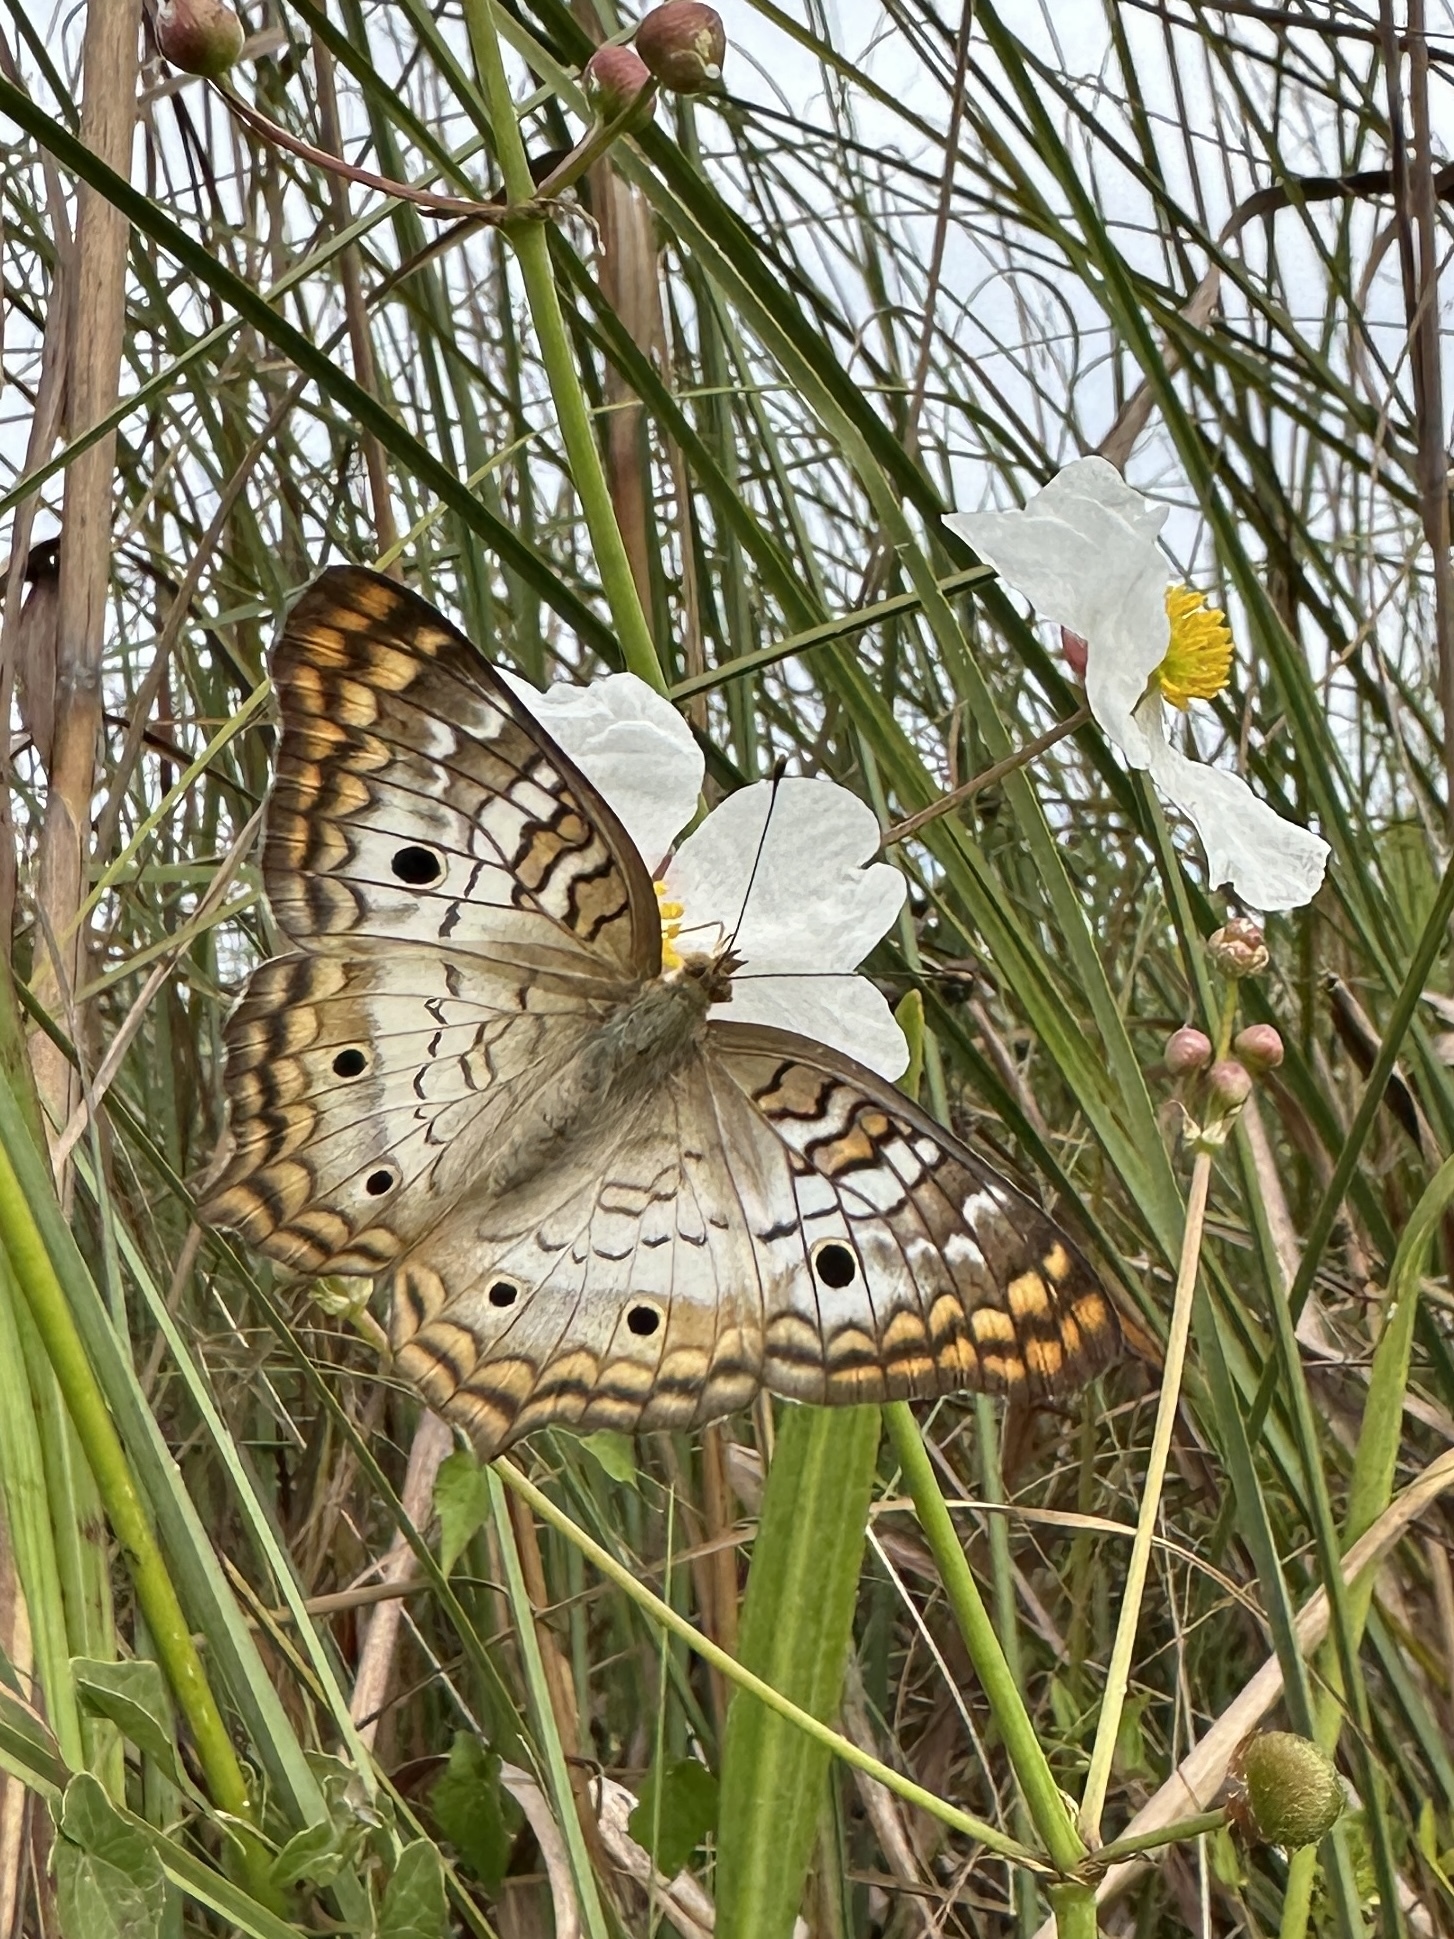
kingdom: Animalia
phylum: Arthropoda
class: Insecta
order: Lepidoptera
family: Nymphalidae
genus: Anartia
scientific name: Anartia jatrophae
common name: White peacock
